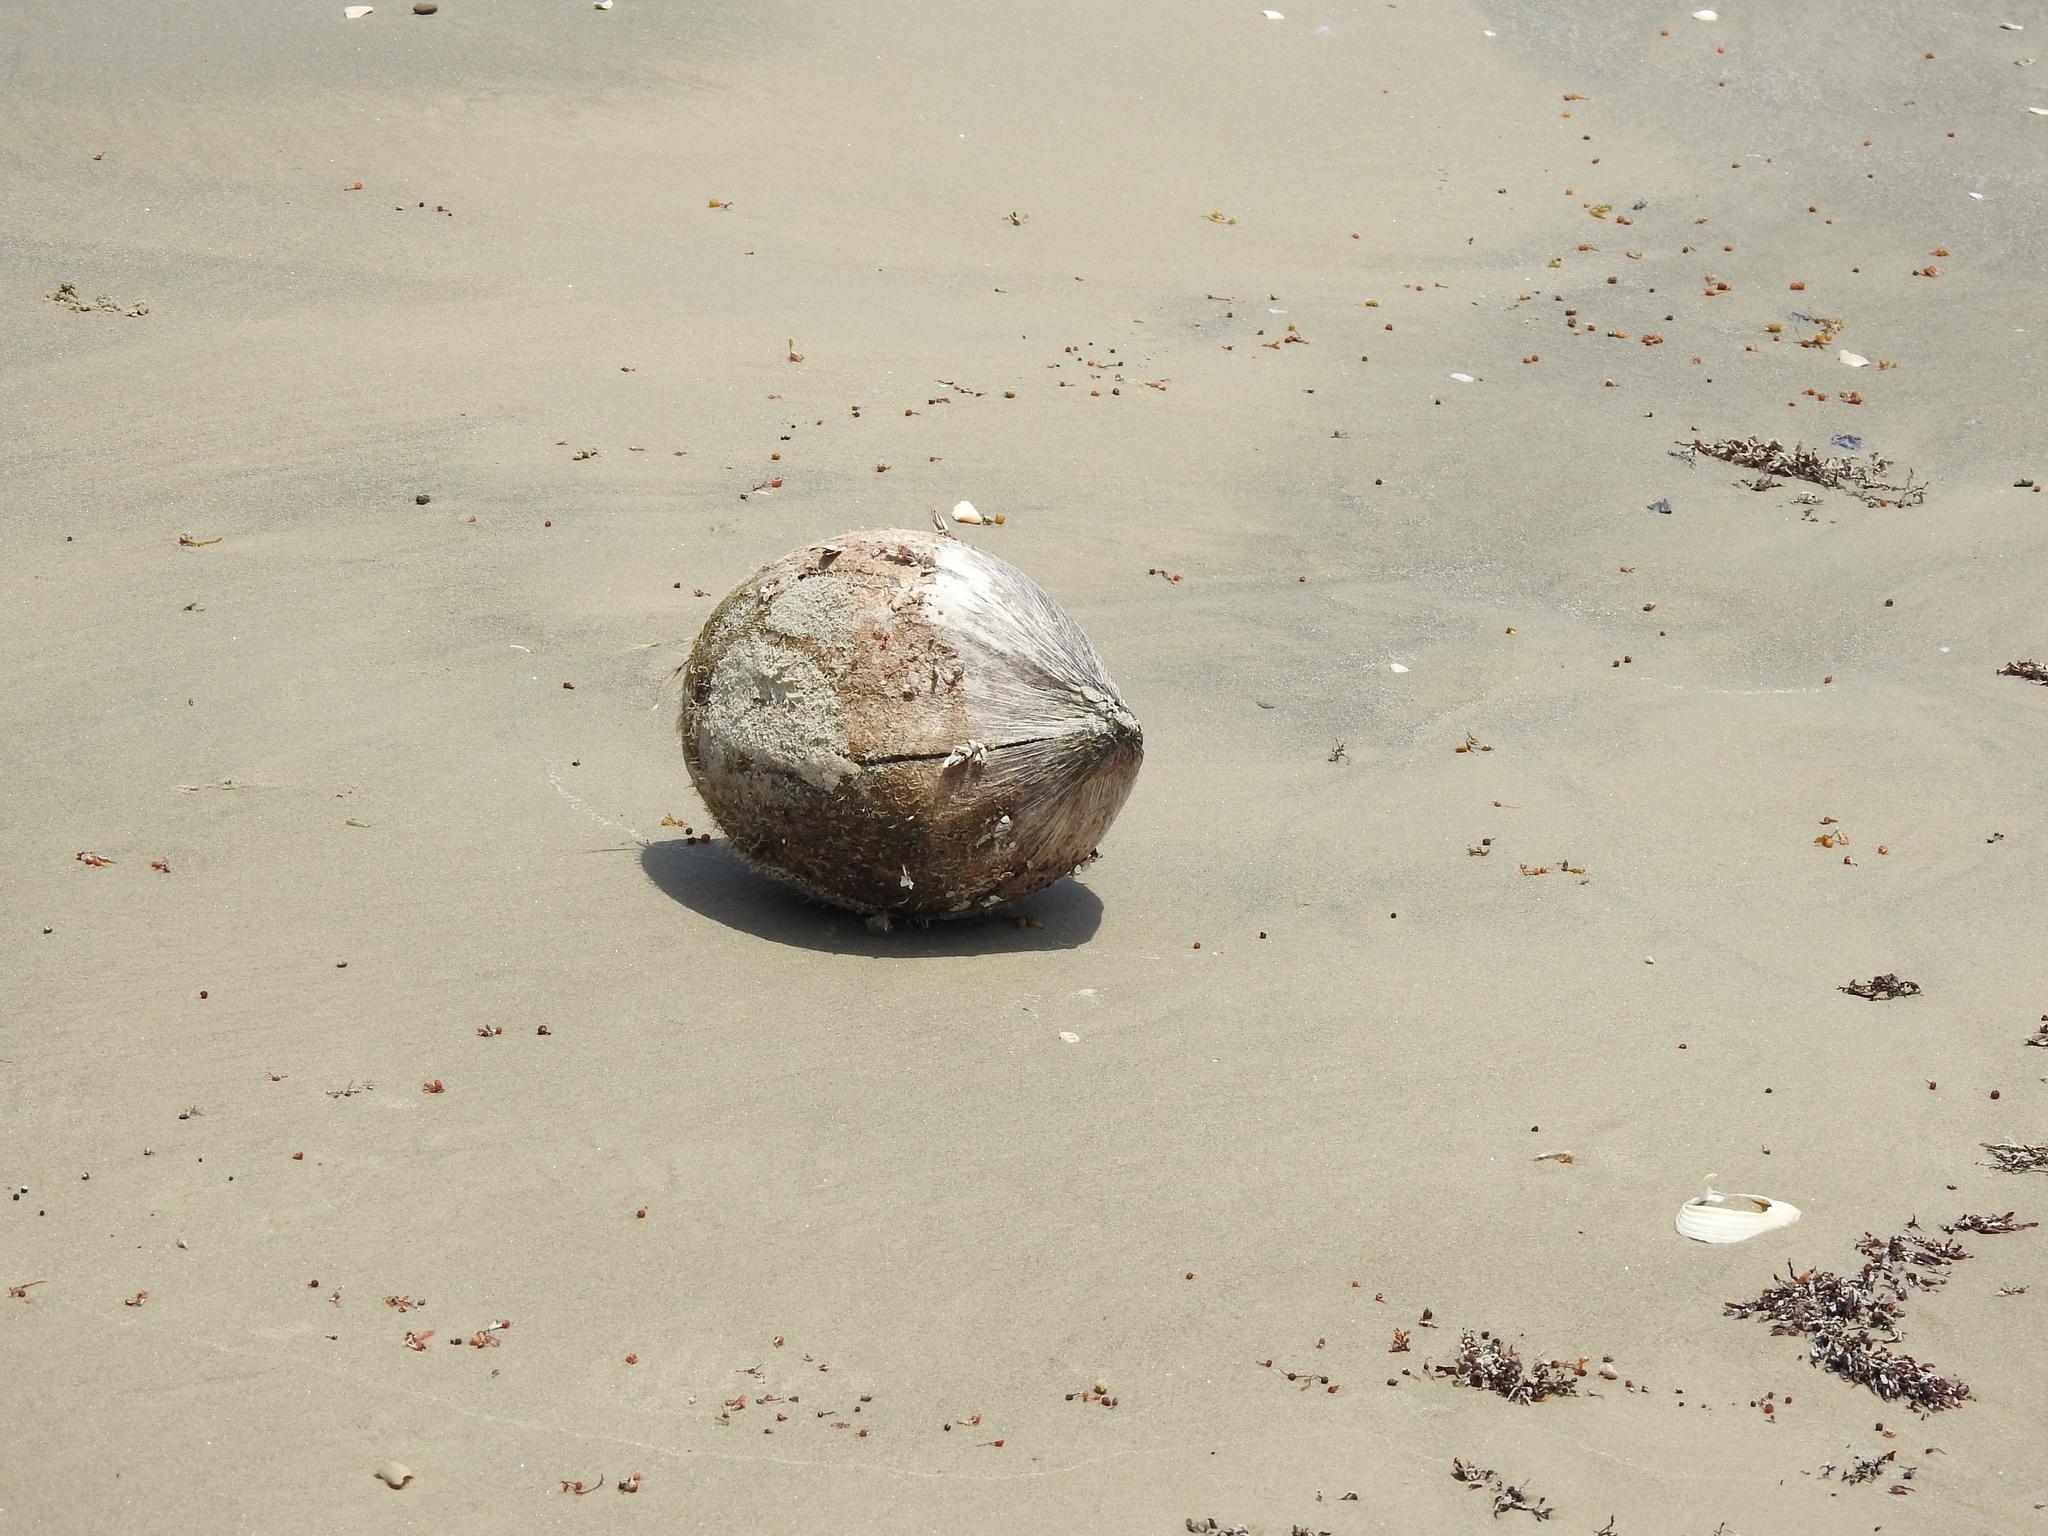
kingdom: Plantae
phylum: Tracheophyta
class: Liliopsida
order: Arecales
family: Arecaceae
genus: Cocos
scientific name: Cocos nucifera
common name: Coconut palm
